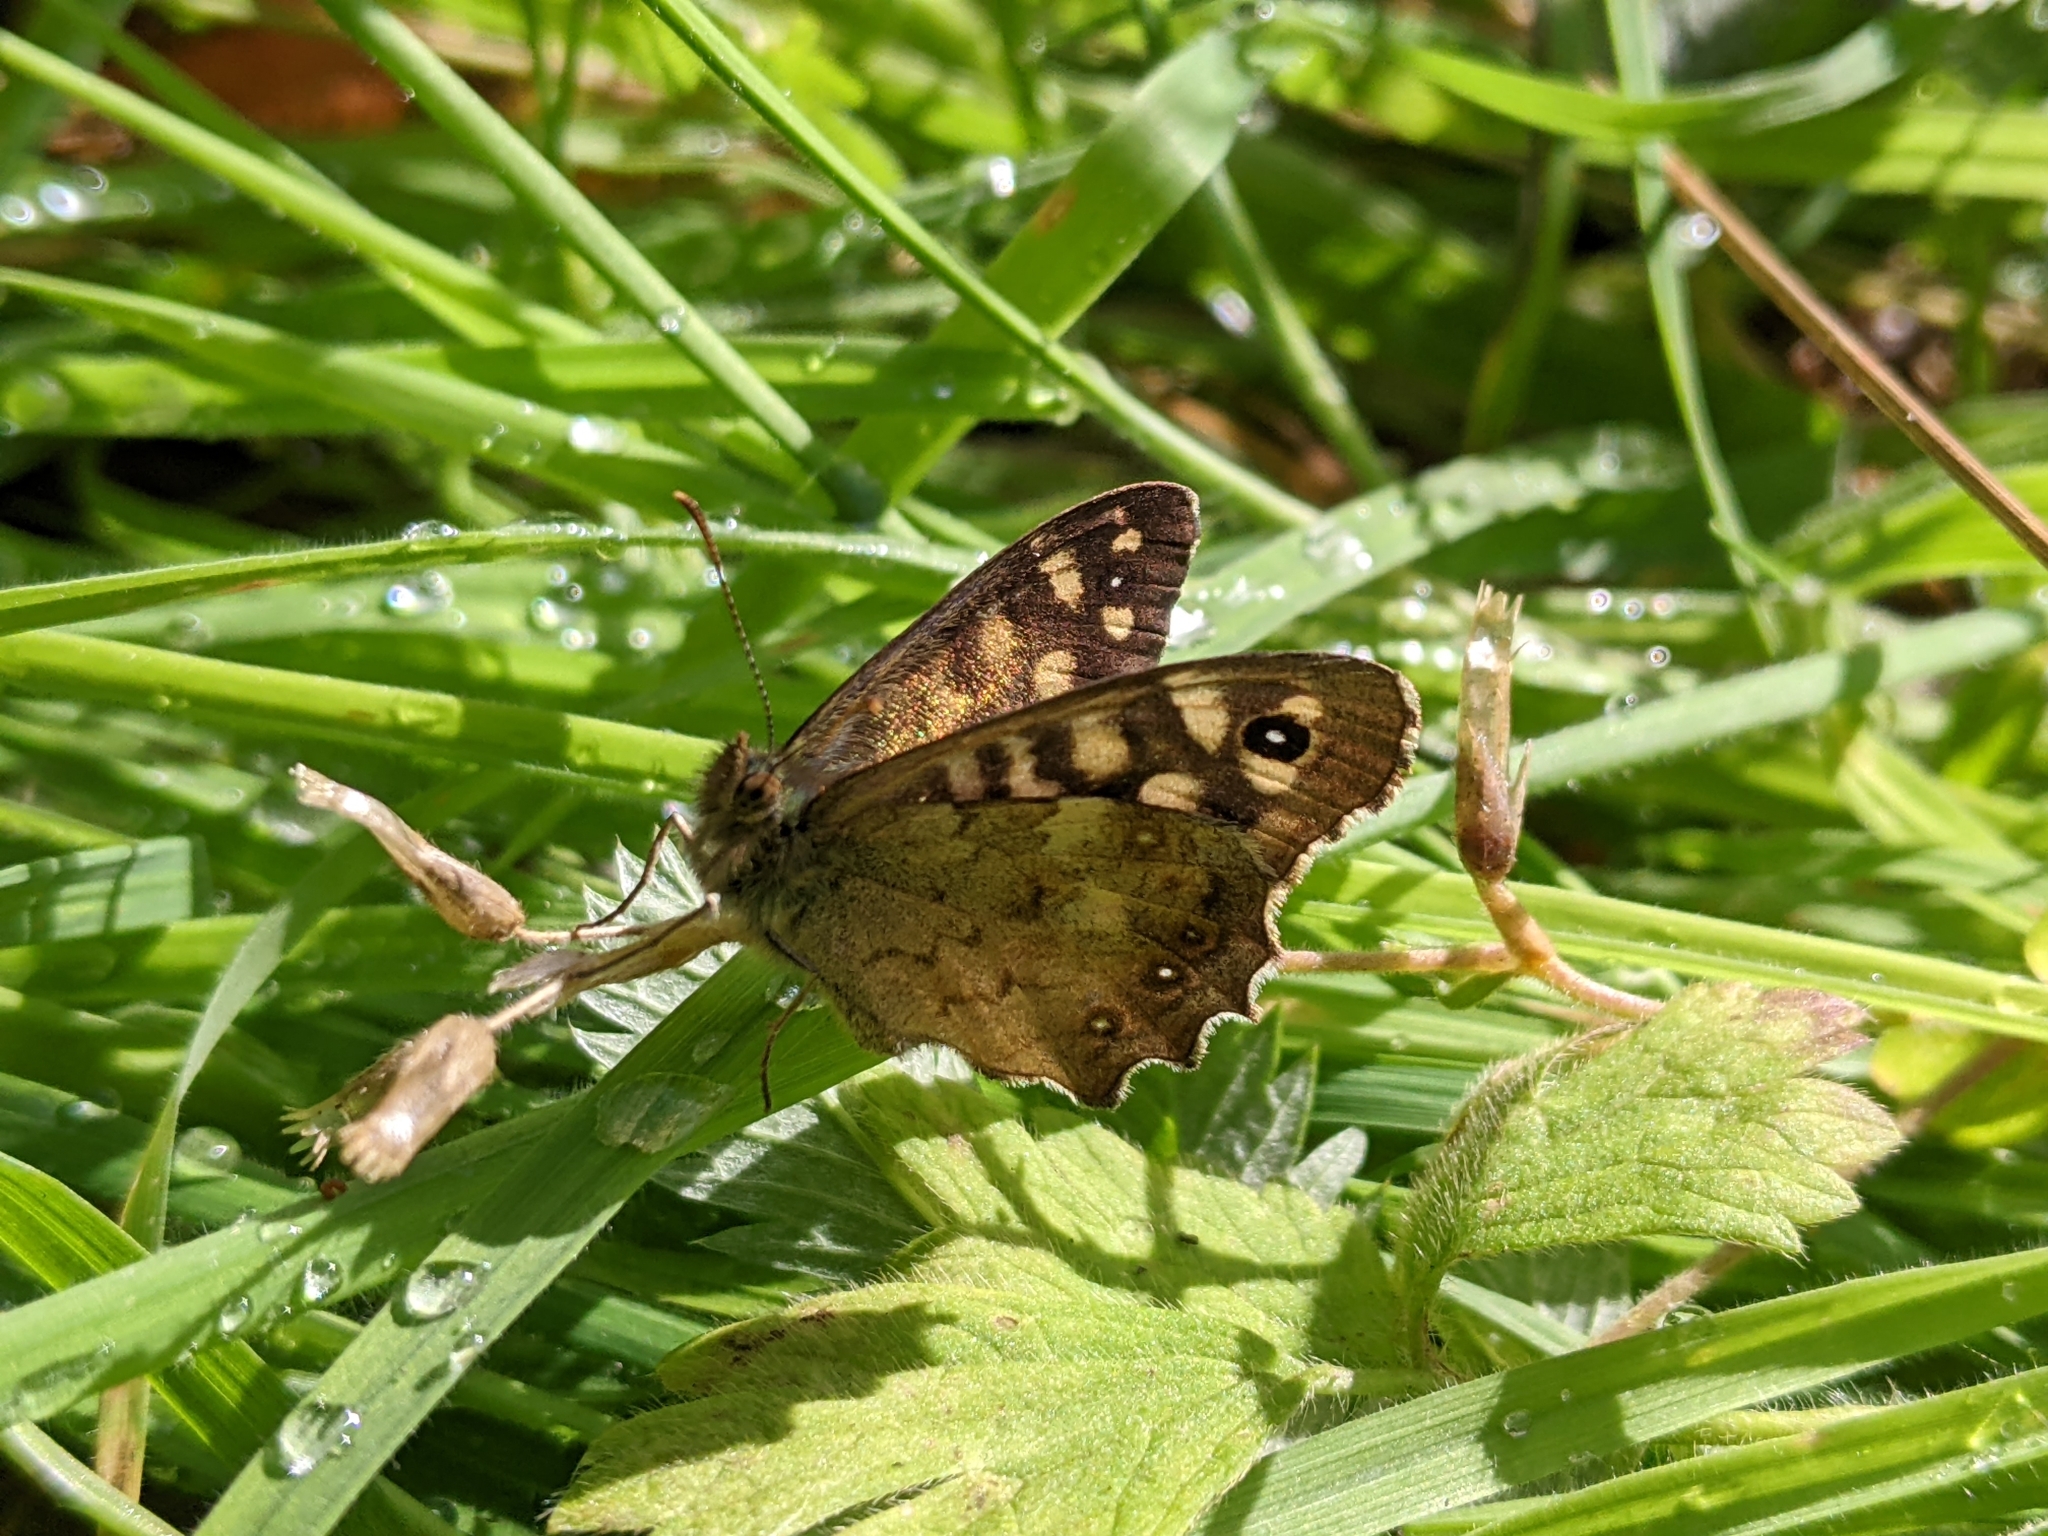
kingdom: Animalia
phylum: Arthropoda
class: Insecta
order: Lepidoptera
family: Nymphalidae
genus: Pararge
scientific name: Pararge aegeria
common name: Speckled wood
